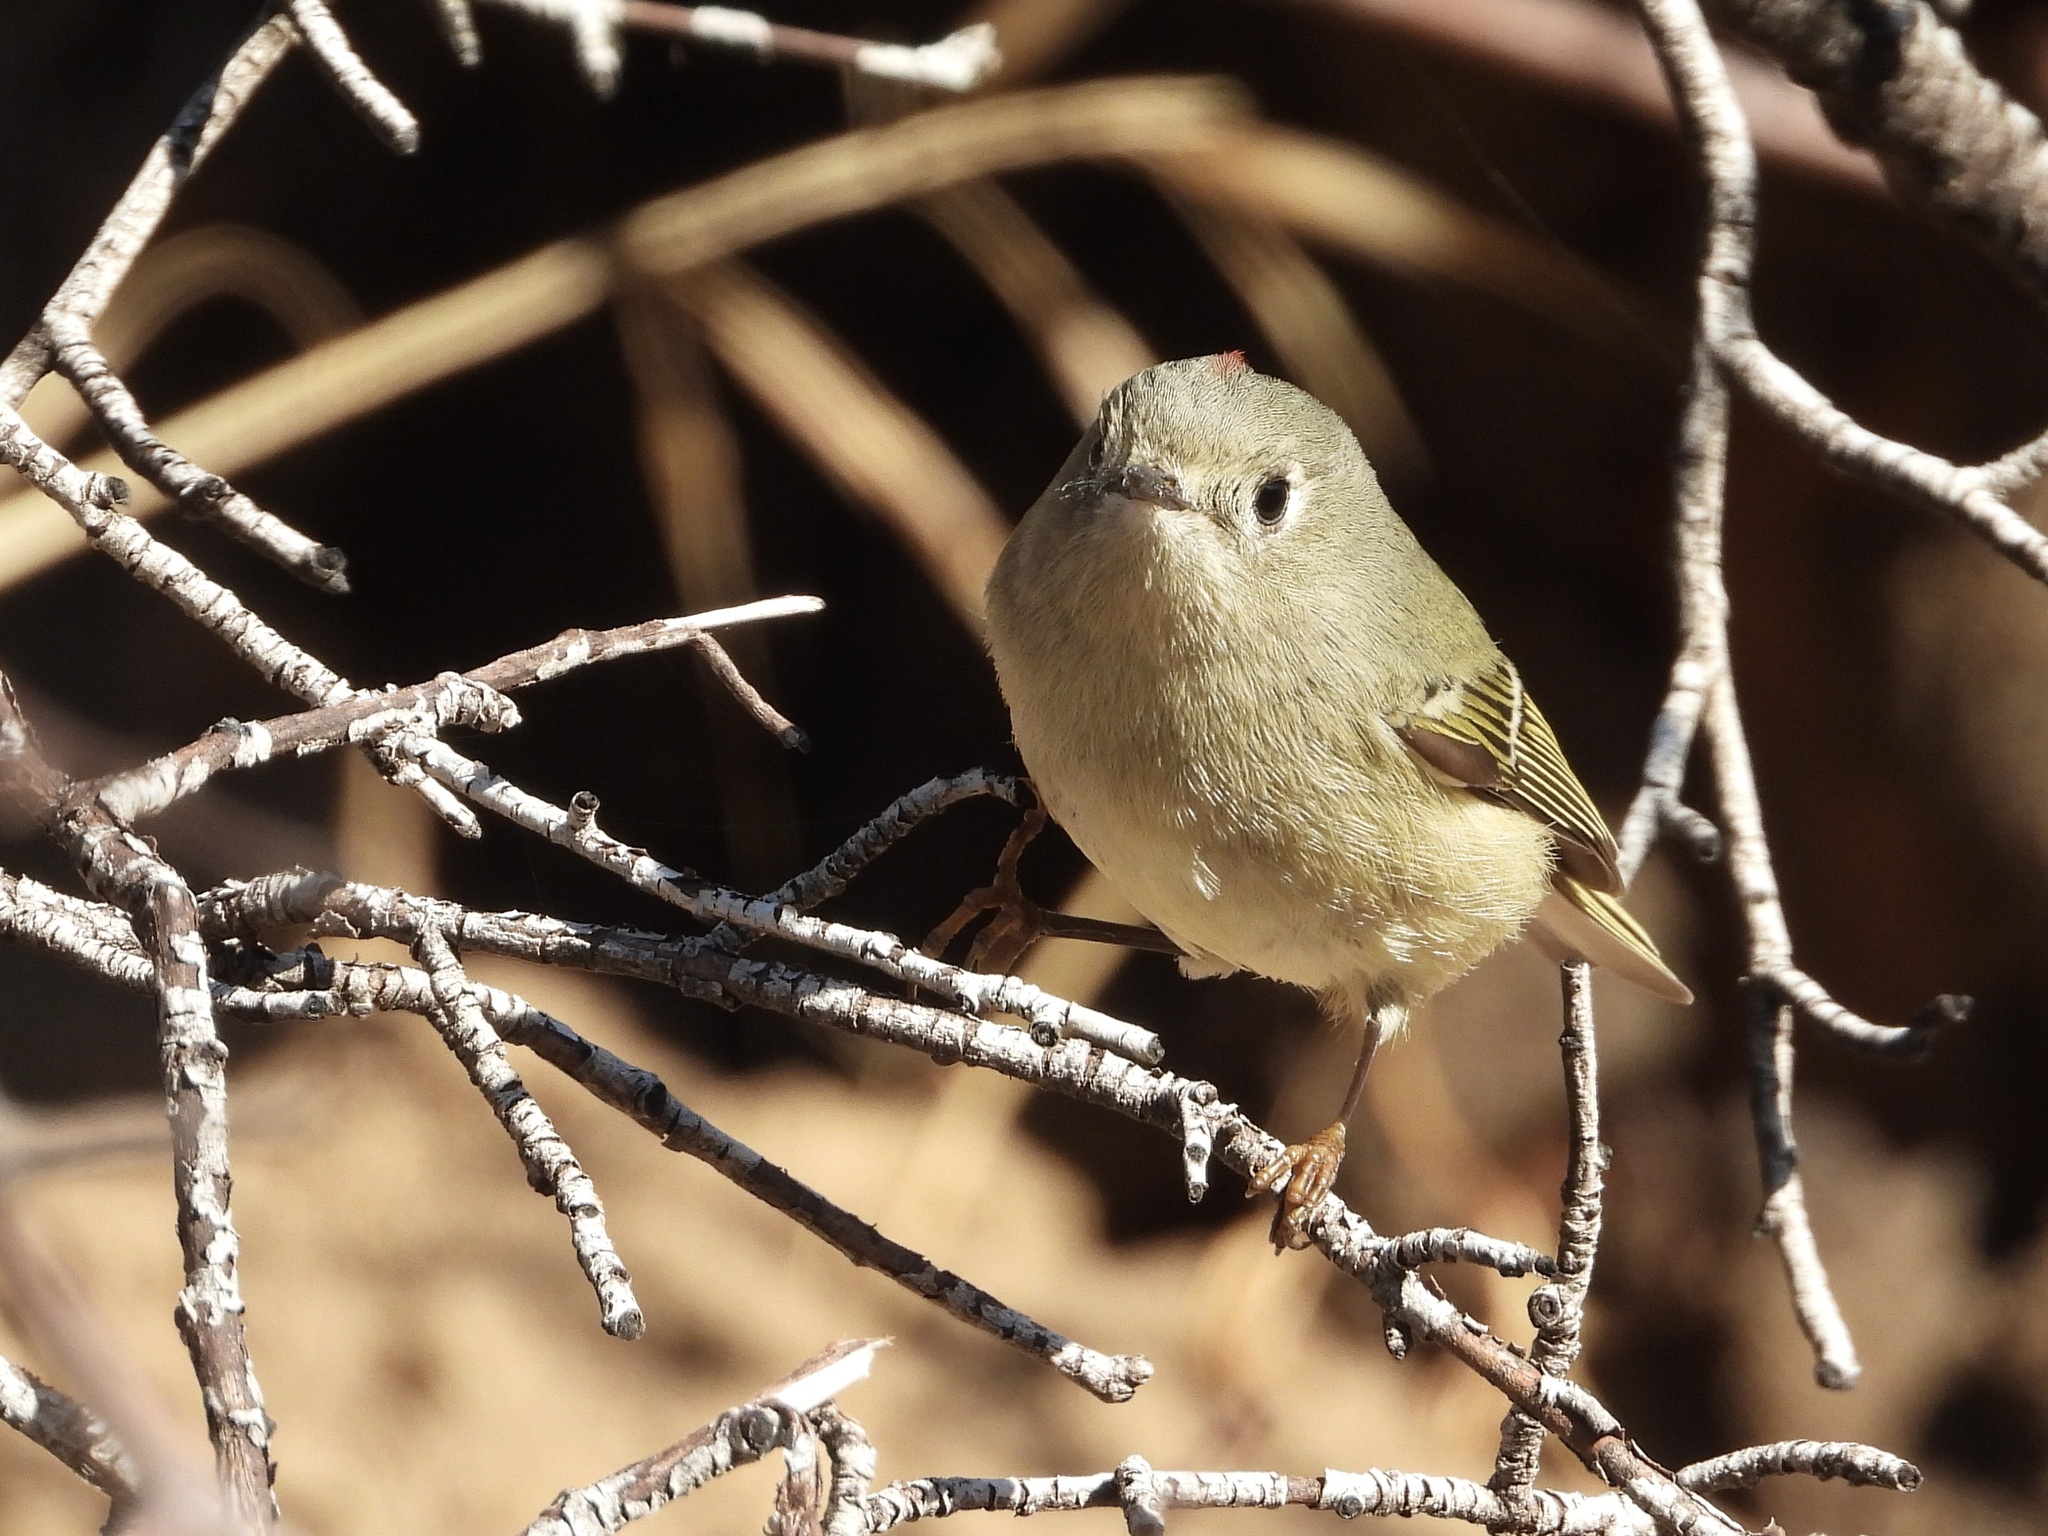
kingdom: Animalia
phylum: Chordata
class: Aves
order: Passeriformes
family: Regulidae
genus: Regulus
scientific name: Regulus calendula
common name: Ruby-crowned kinglet
